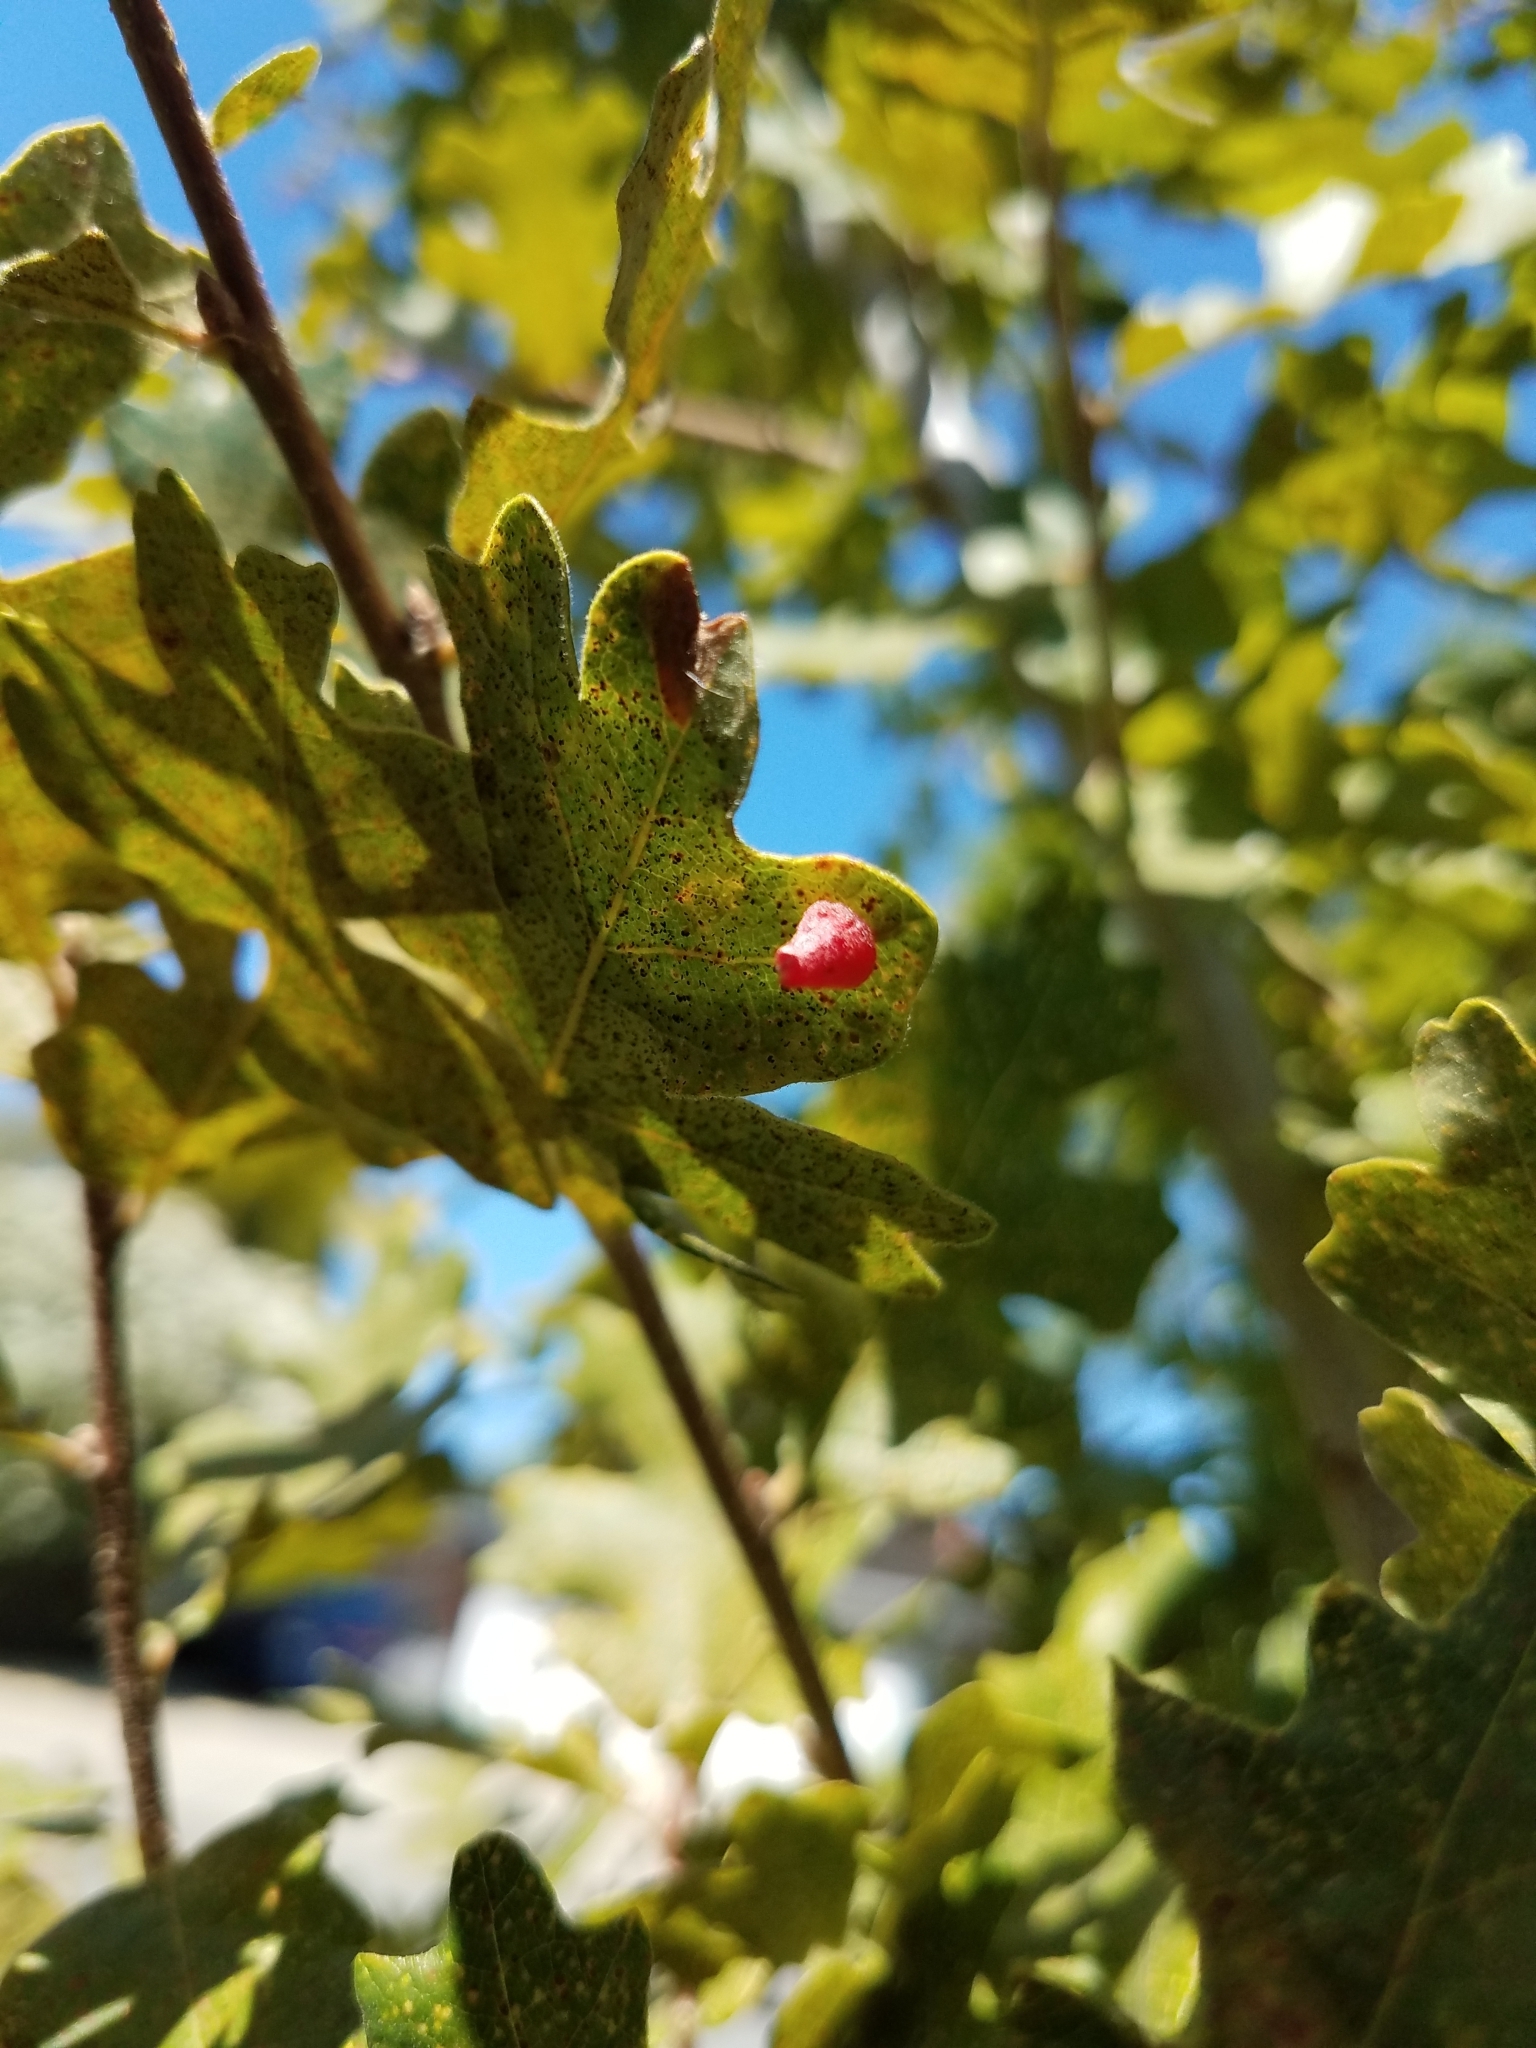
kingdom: Animalia
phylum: Arthropoda
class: Insecta
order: Hymenoptera
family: Cynipidae
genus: Andricus
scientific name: Andricus
